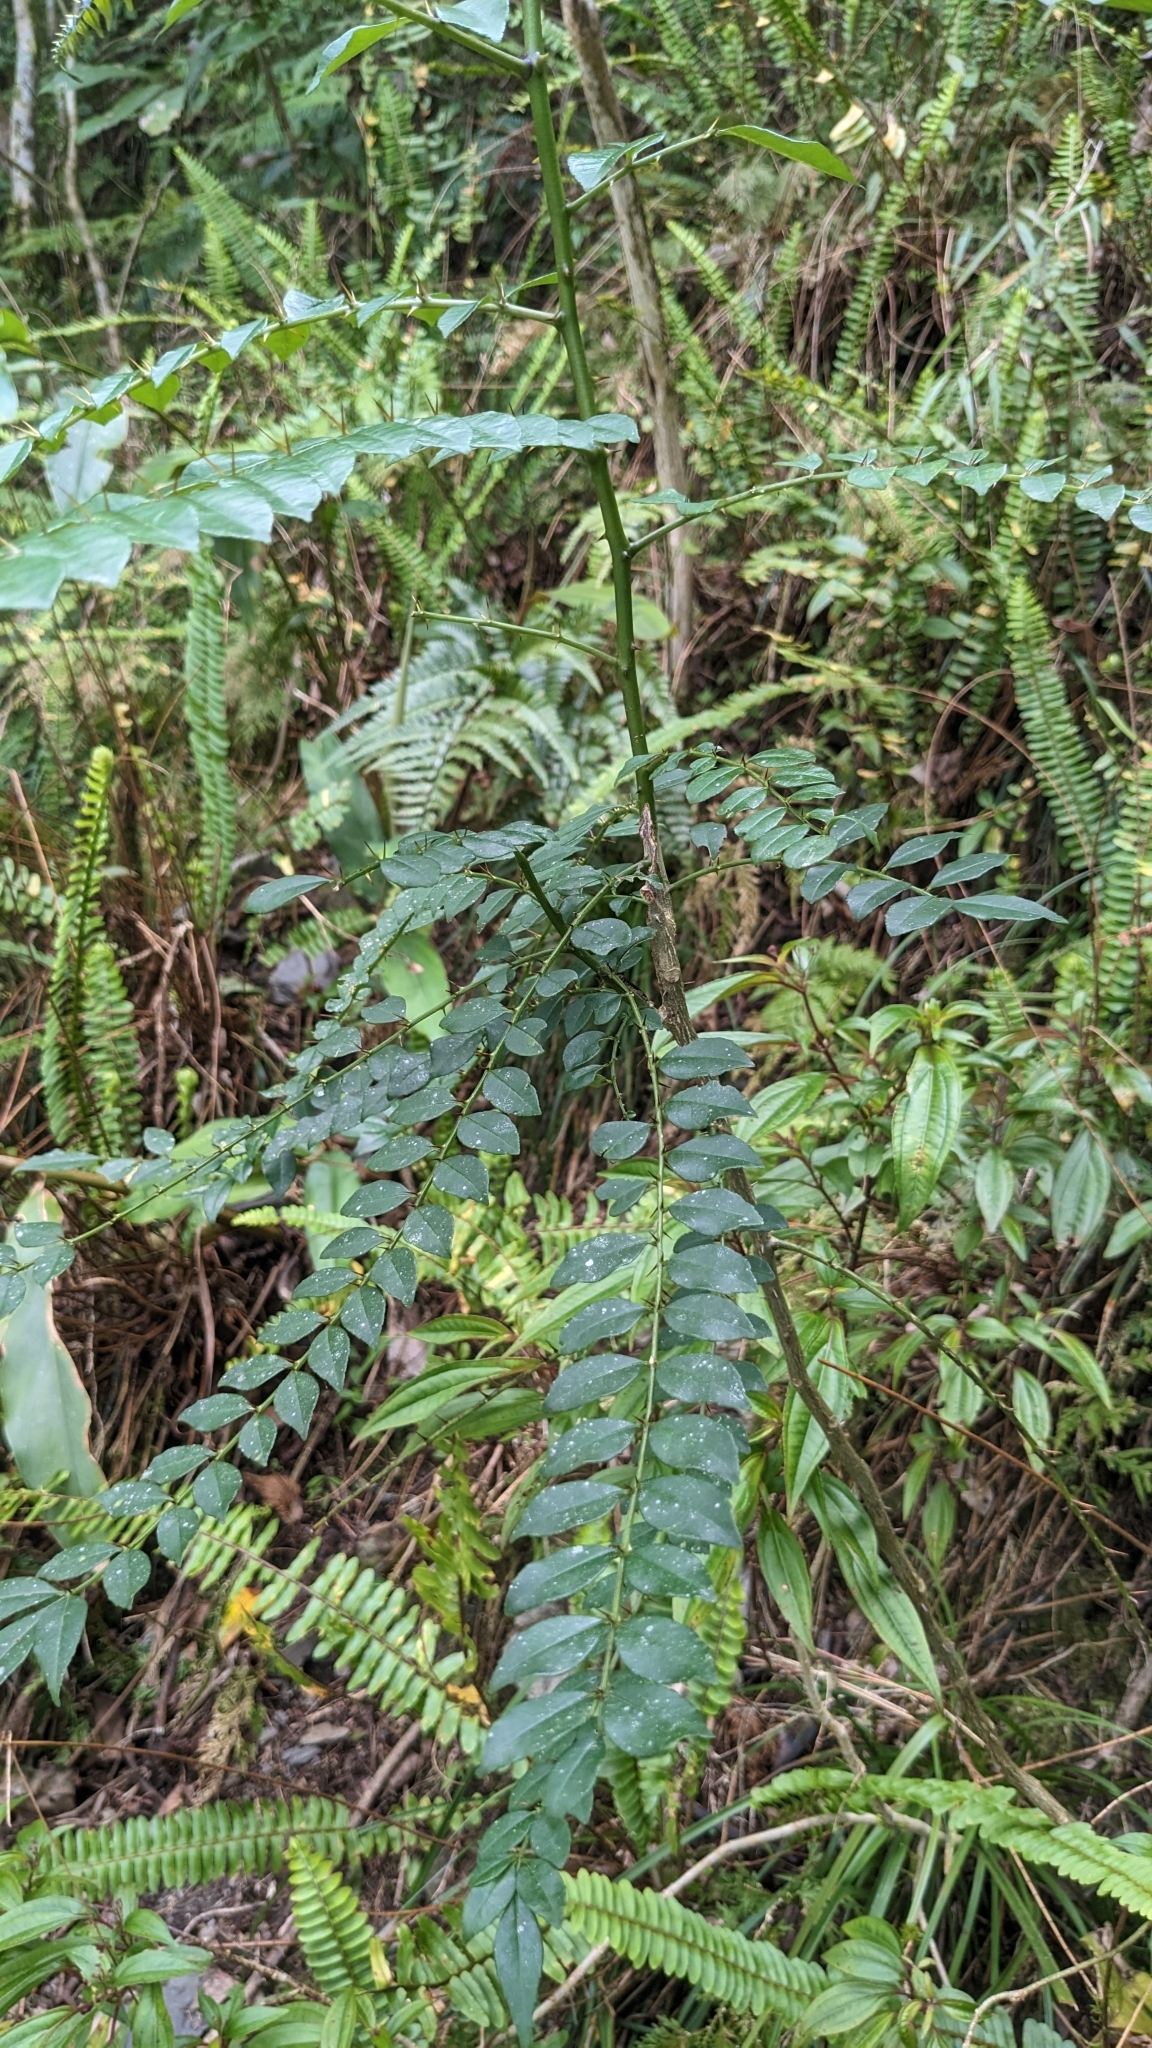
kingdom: Plantae
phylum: Tracheophyta
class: Magnoliopsida
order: Sapindales
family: Rutaceae
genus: Zanthoxylum
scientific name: Zanthoxylum scandens
